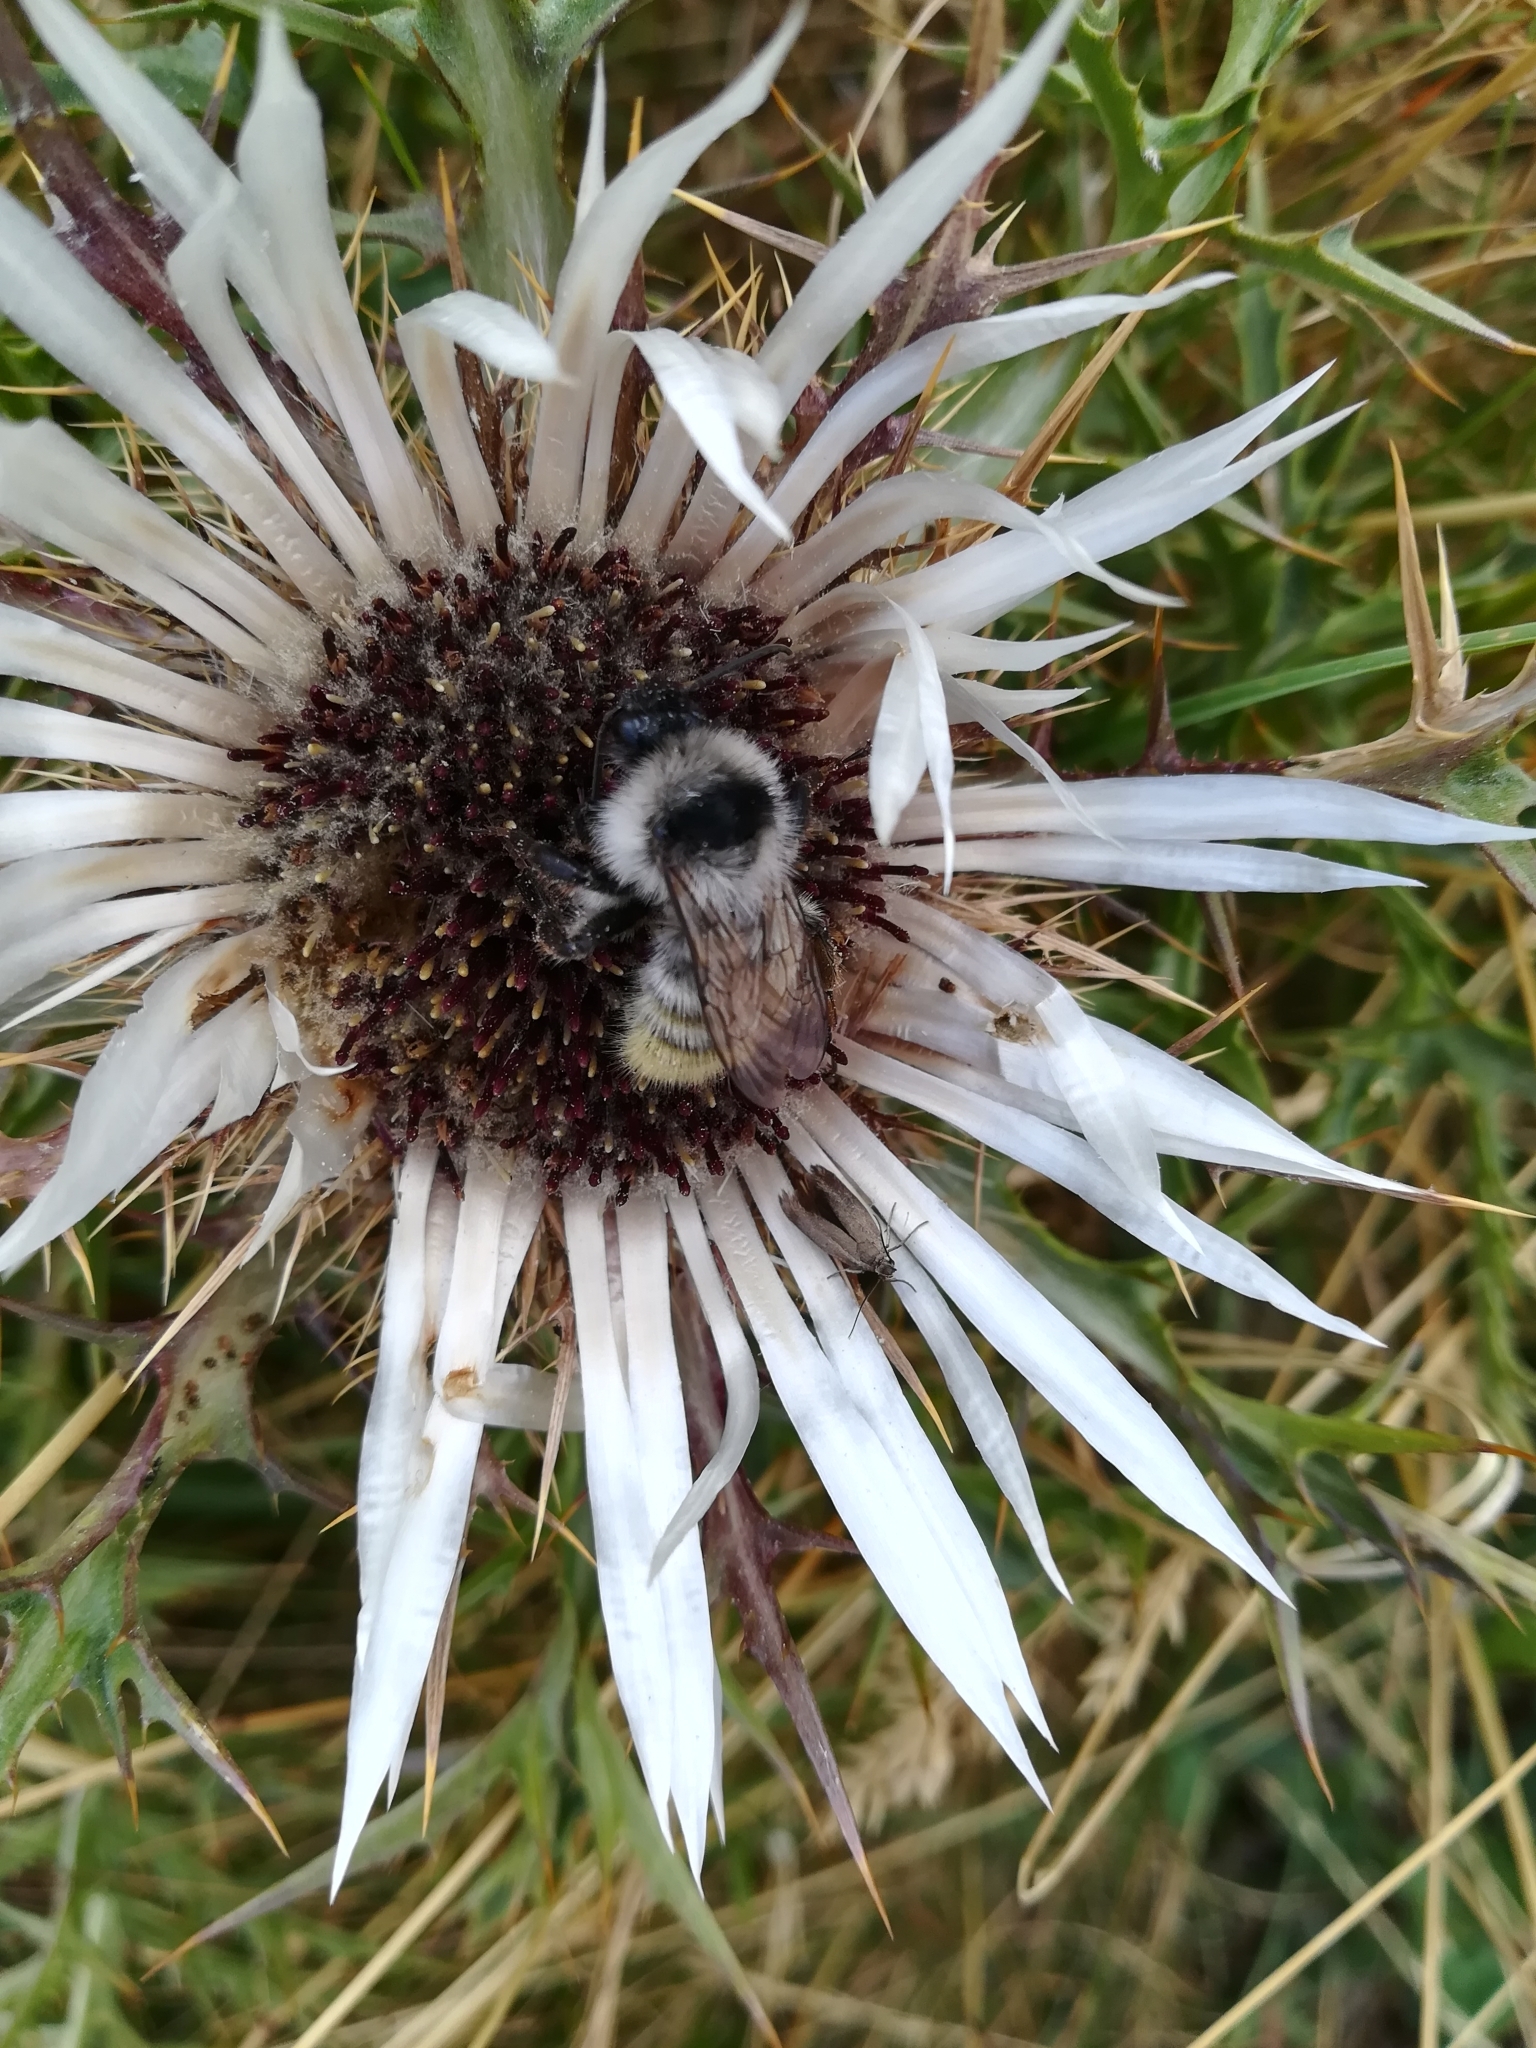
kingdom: Animalia
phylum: Arthropoda
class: Insecta
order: Hymenoptera
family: Apidae
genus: Bombus
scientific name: Bombus mesomelas
